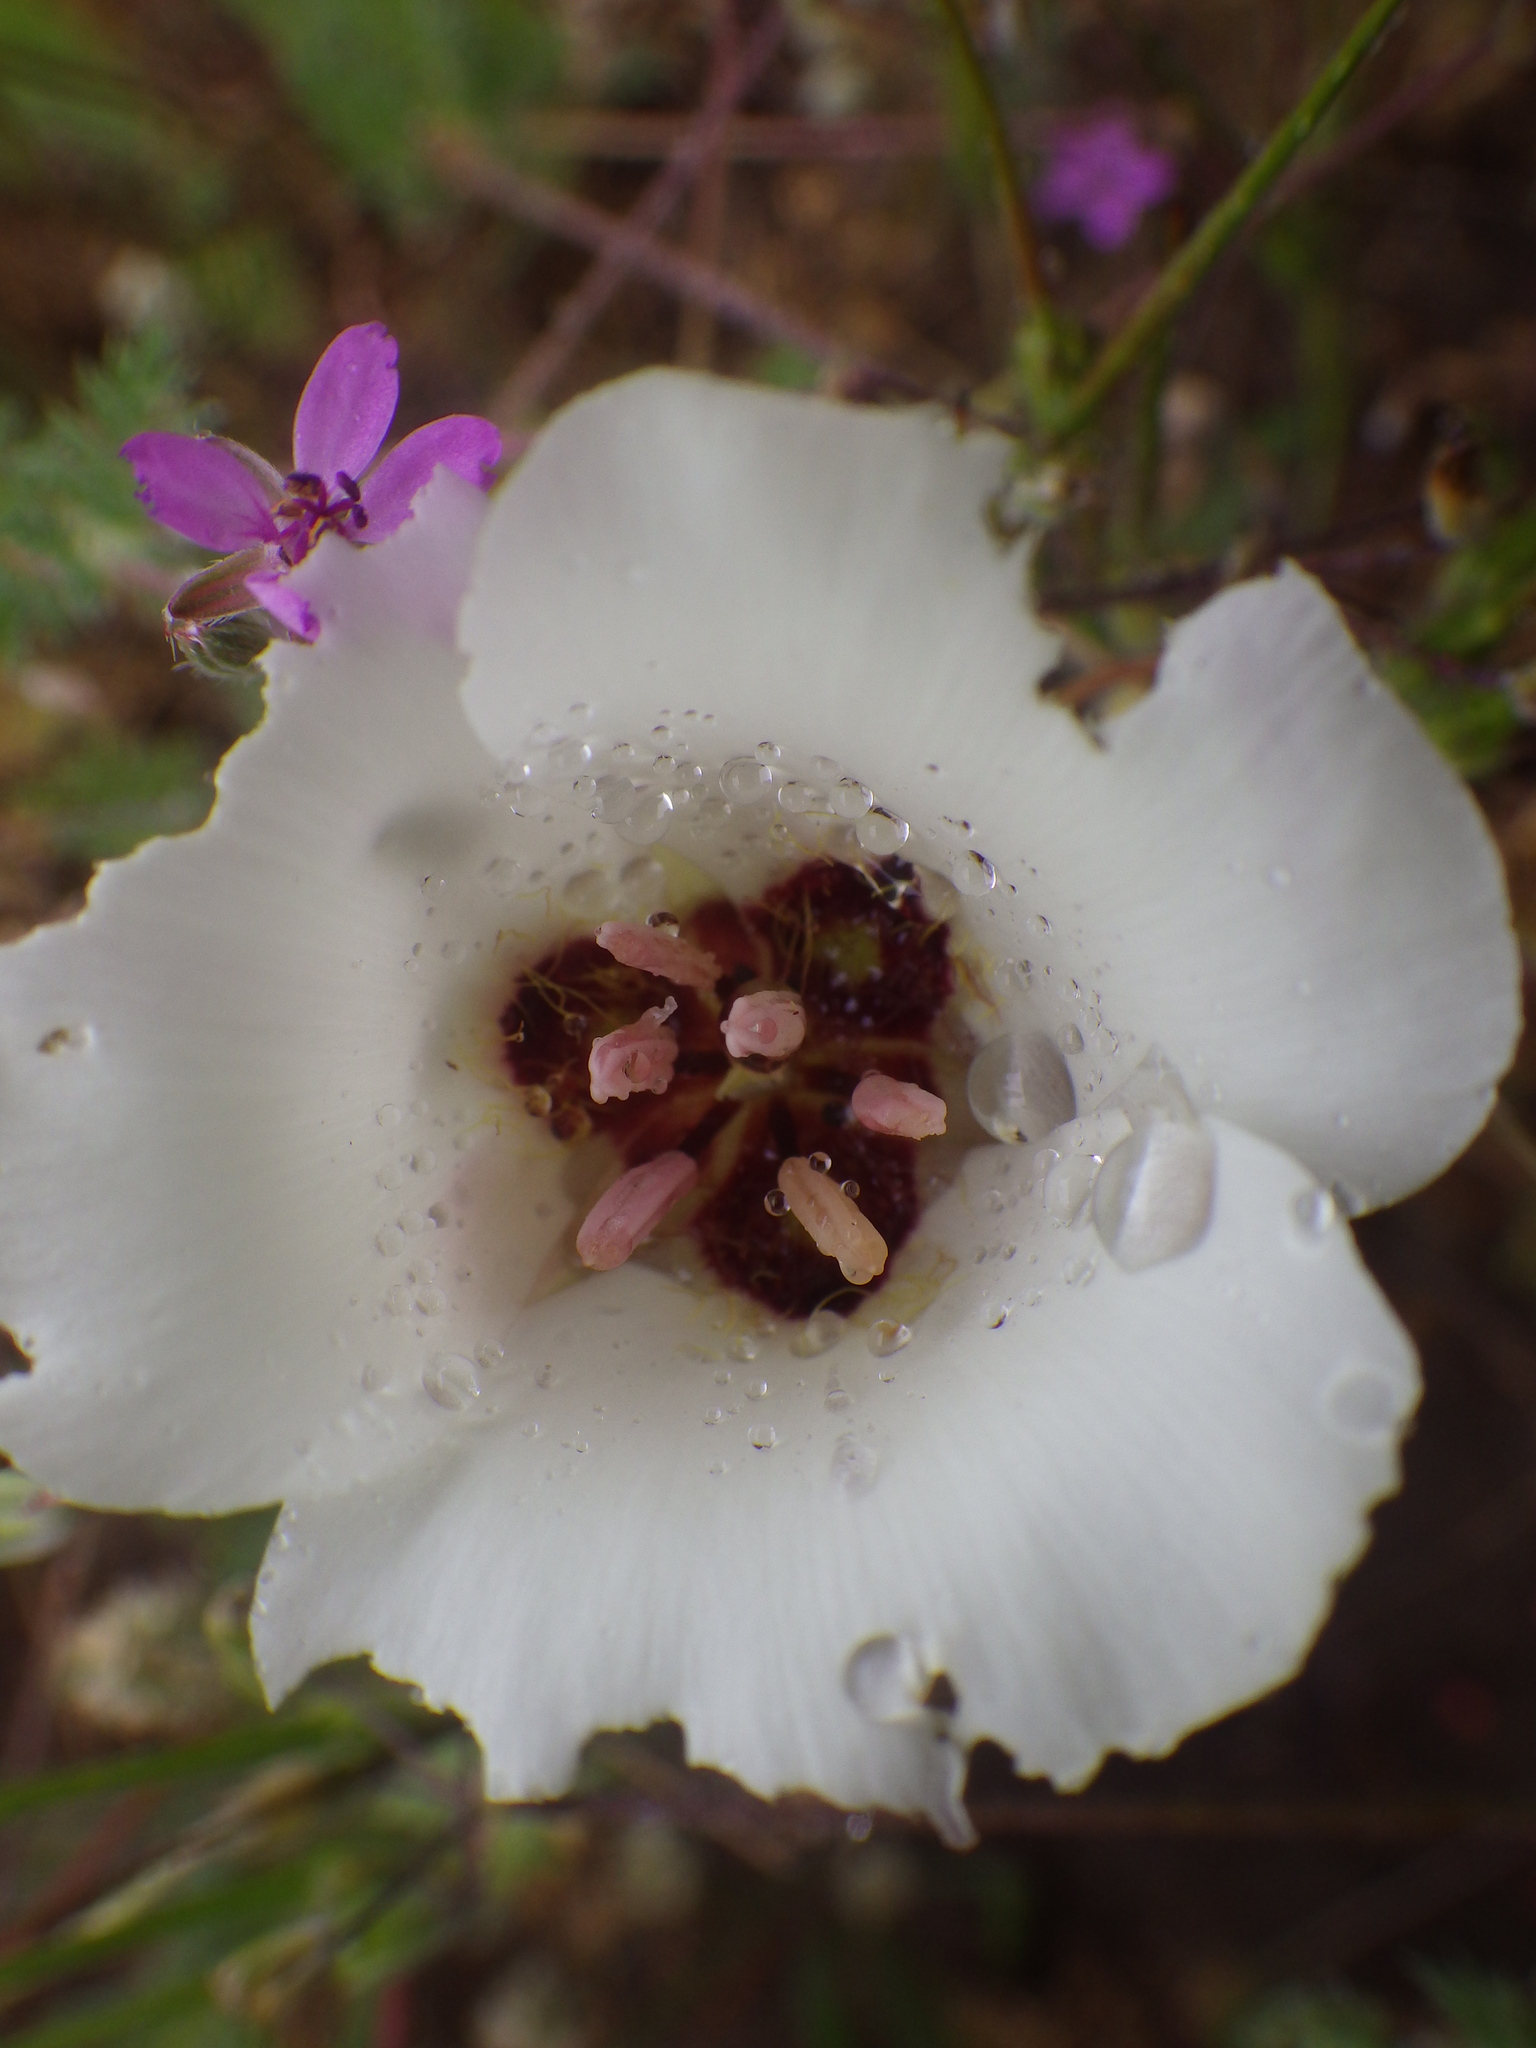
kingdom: Plantae
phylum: Tracheophyta
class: Liliopsida
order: Liliales
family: Liliaceae
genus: Calochortus
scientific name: Calochortus catalinae
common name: Catalina mariposa-lily
